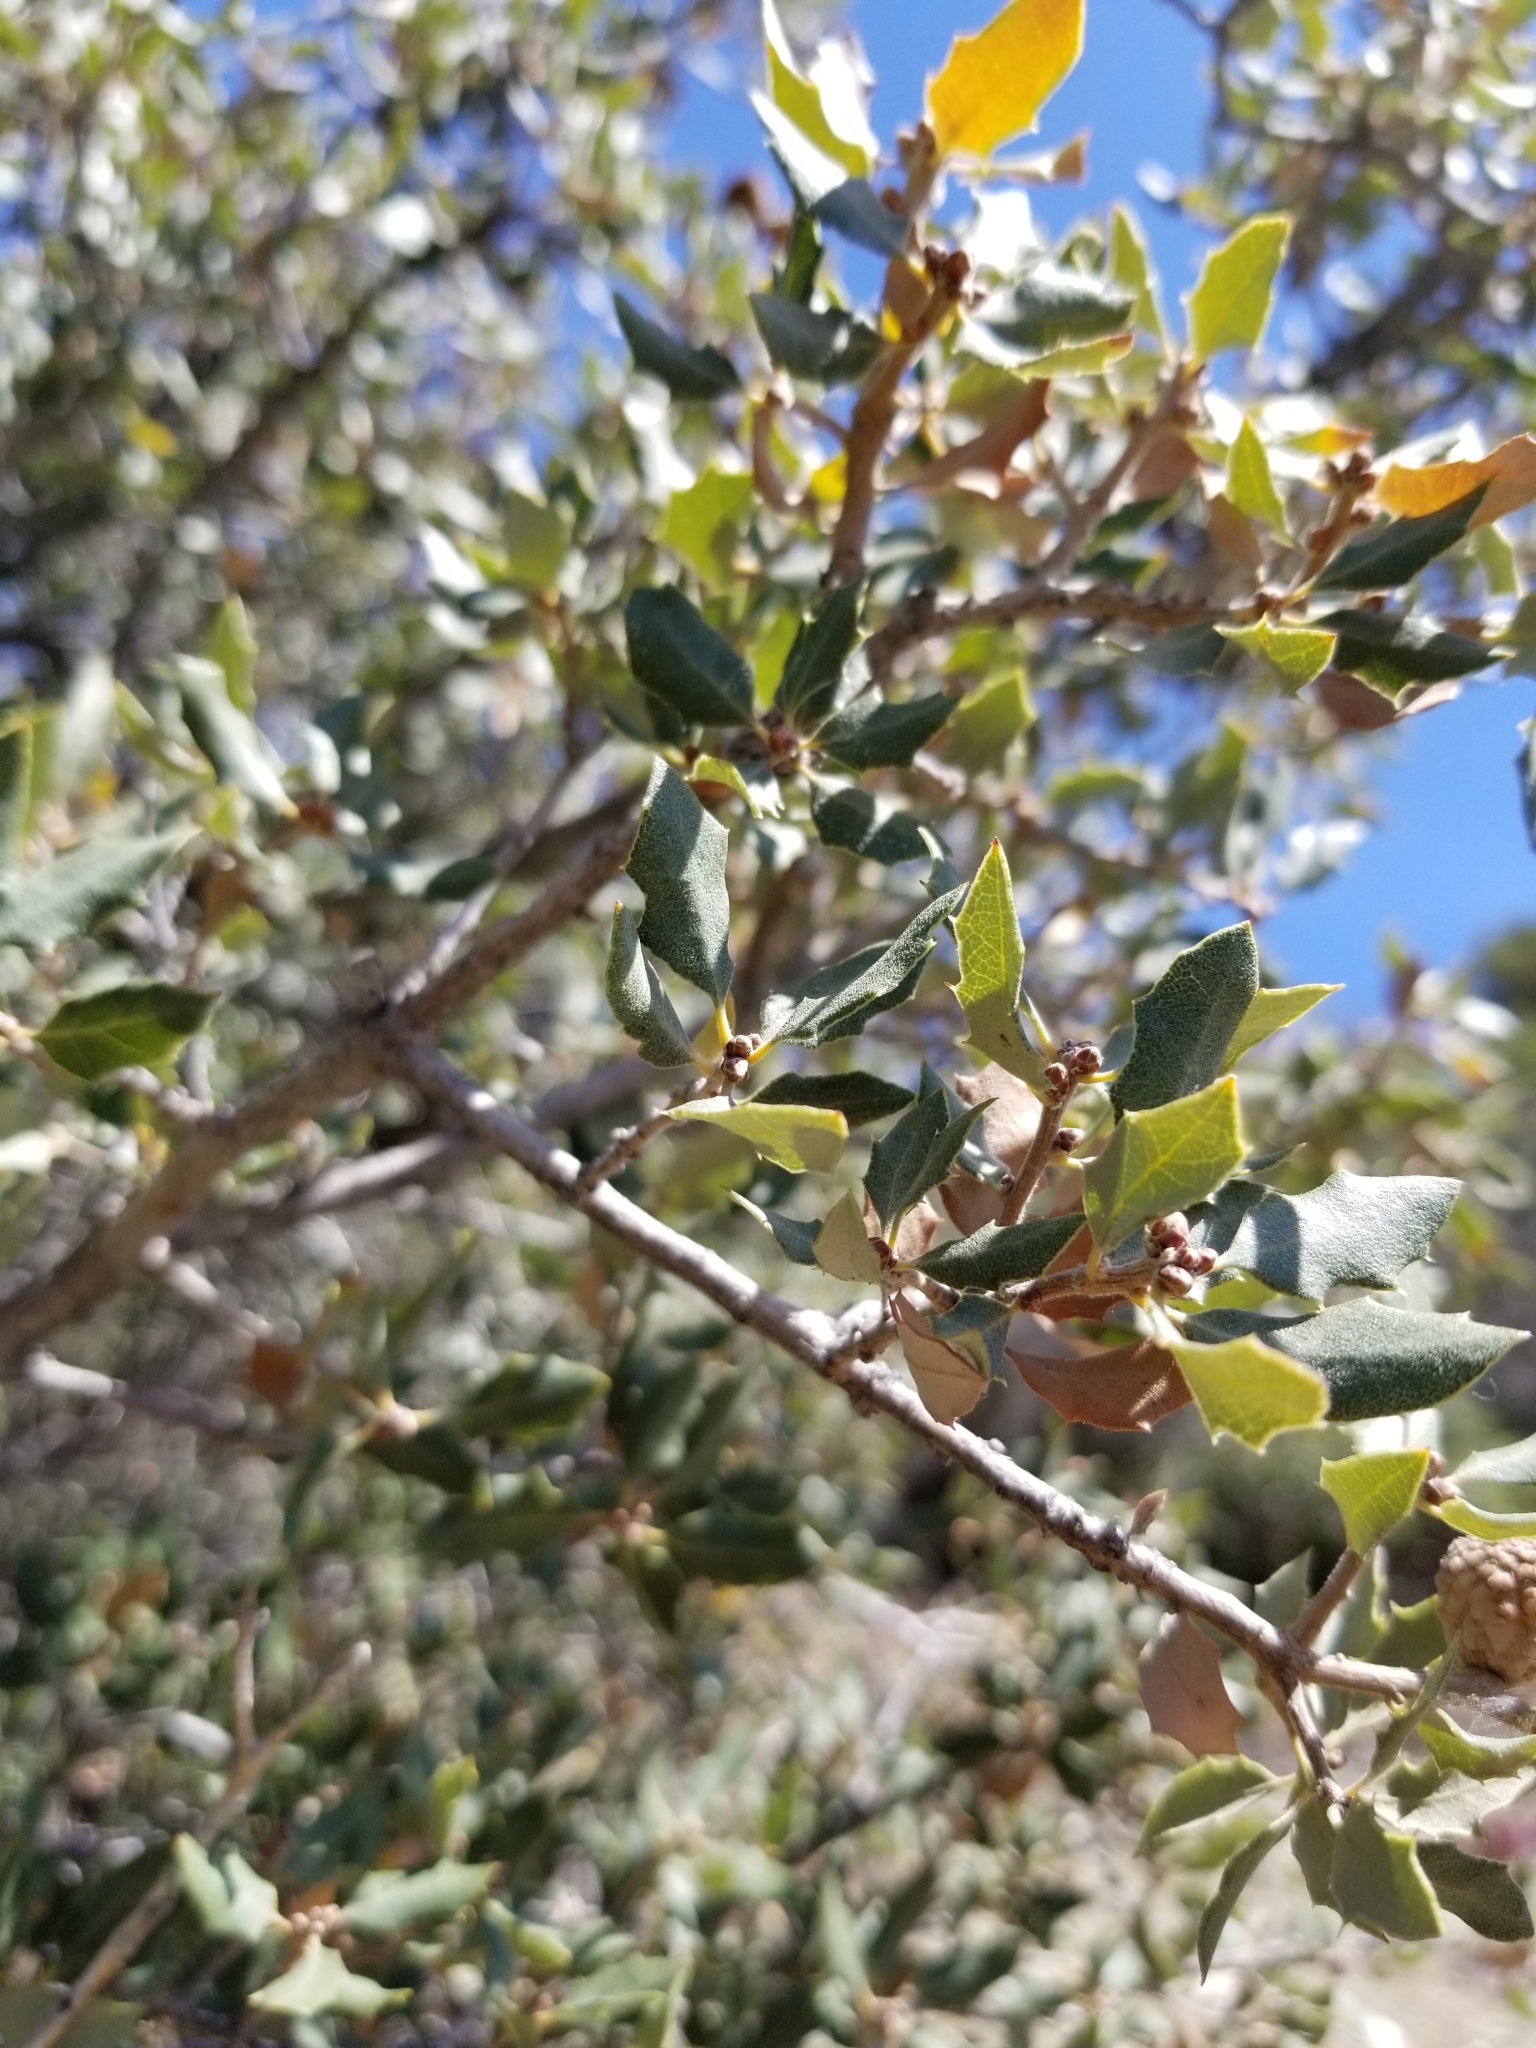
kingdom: Plantae
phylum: Tracheophyta
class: Magnoliopsida
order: Fagales
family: Fagaceae
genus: Quercus
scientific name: Quercus cornelius-mulleri
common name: Muller oak
